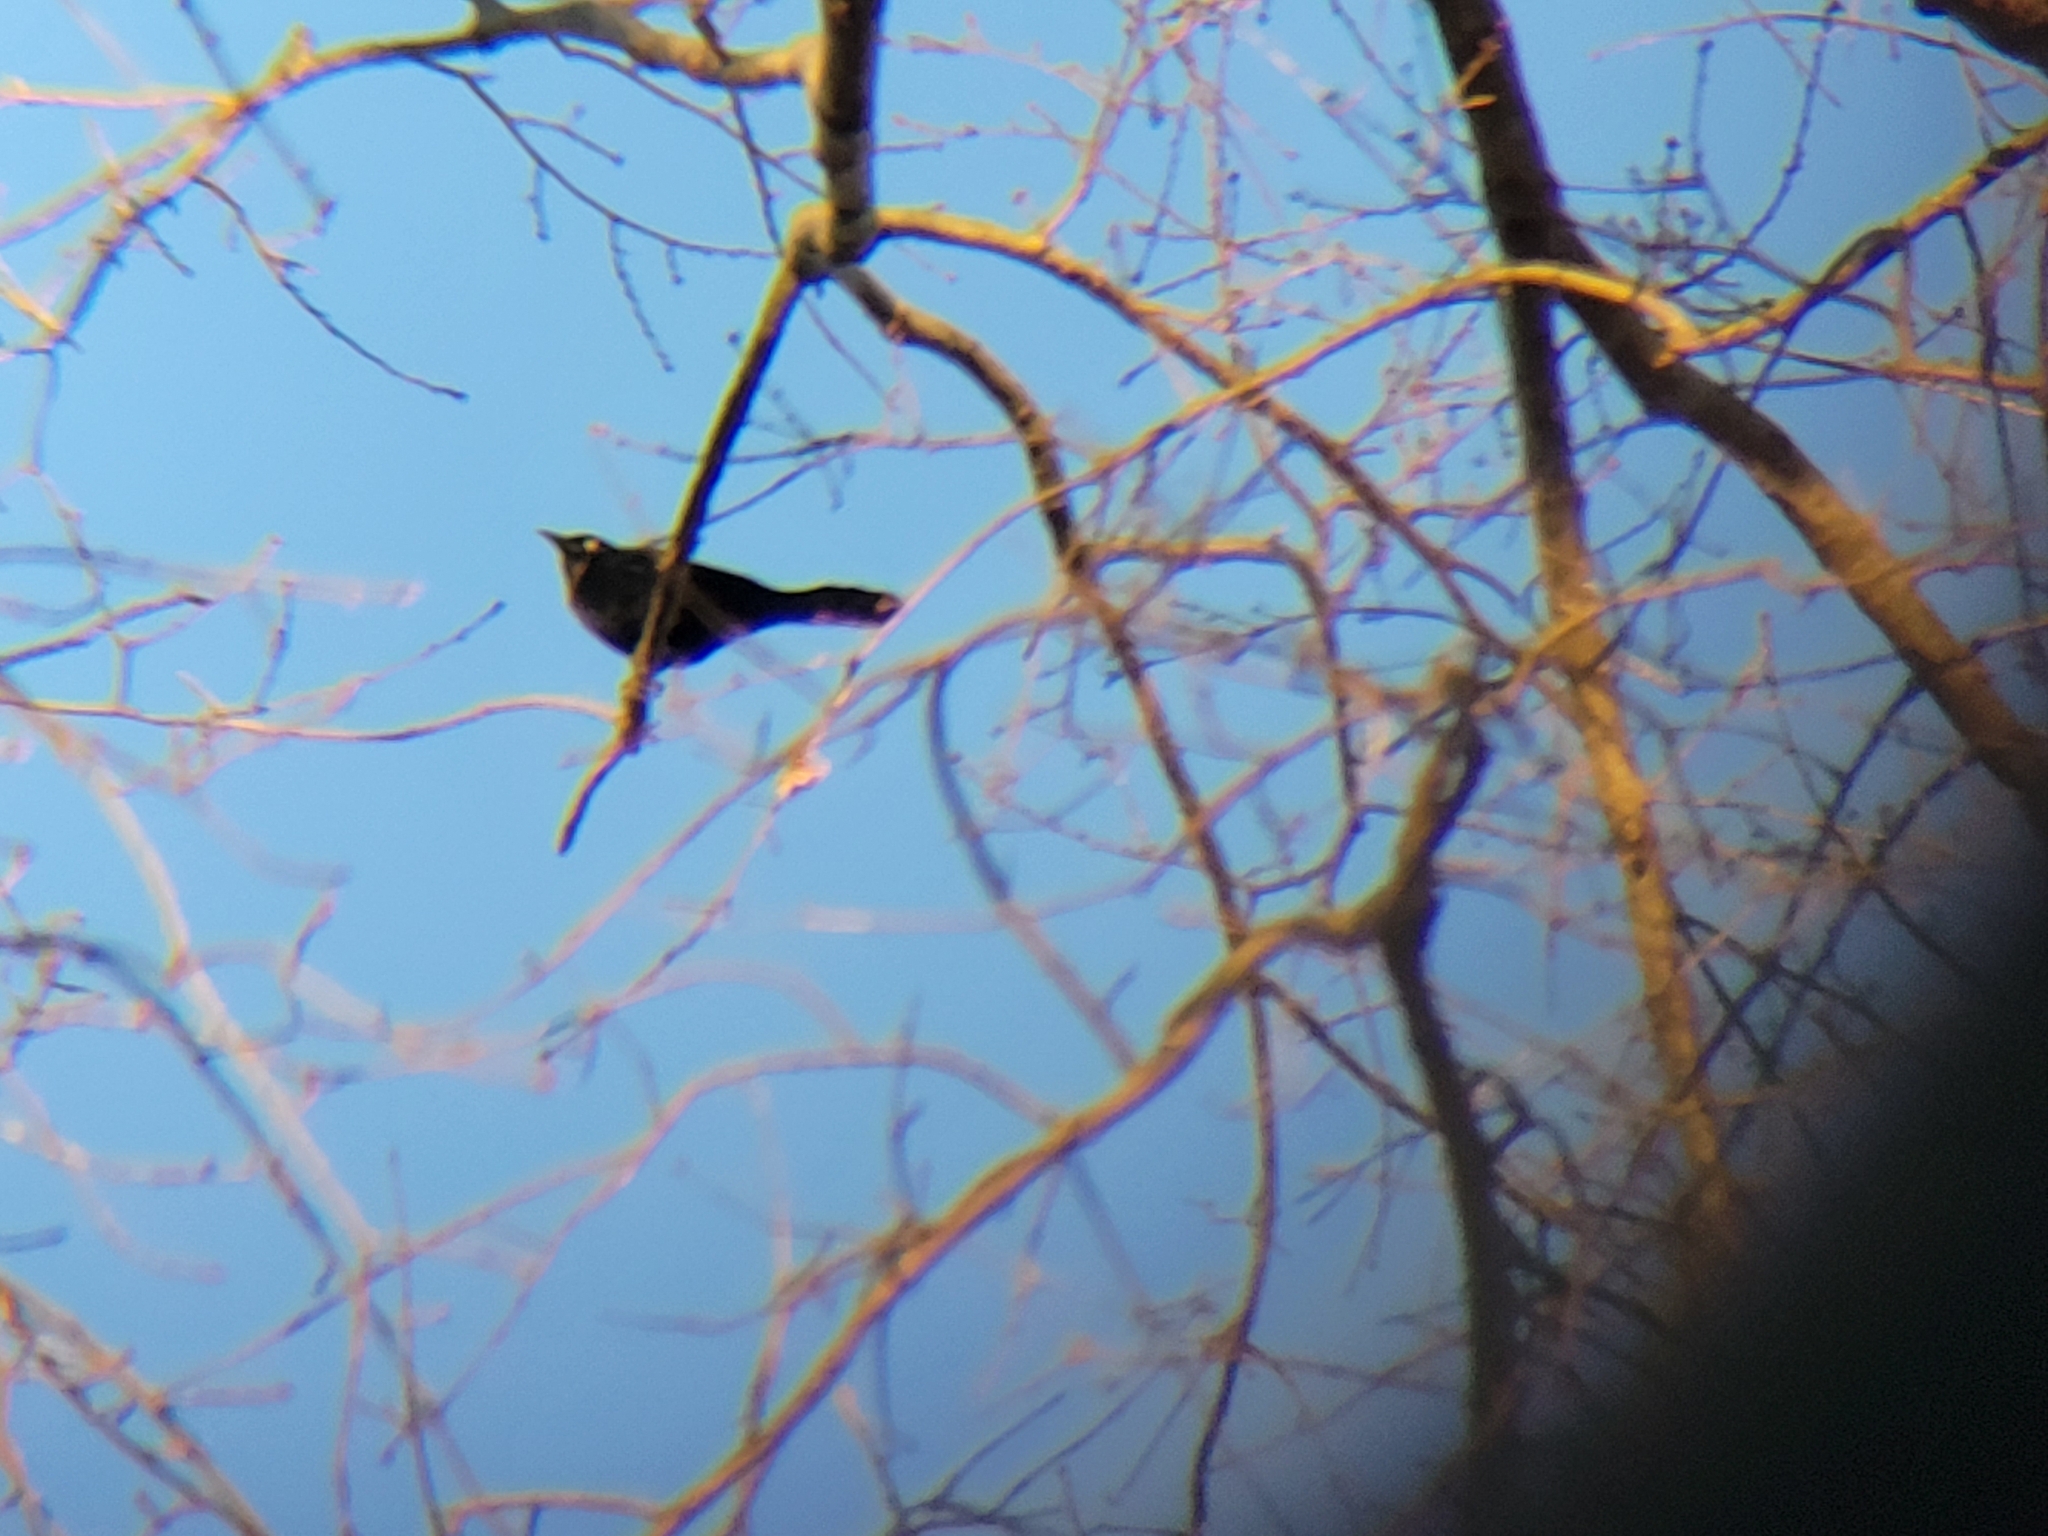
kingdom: Animalia
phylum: Chordata
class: Aves
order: Passeriformes
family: Icteridae
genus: Quiscalus
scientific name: Quiscalus quiscula
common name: Common grackle
